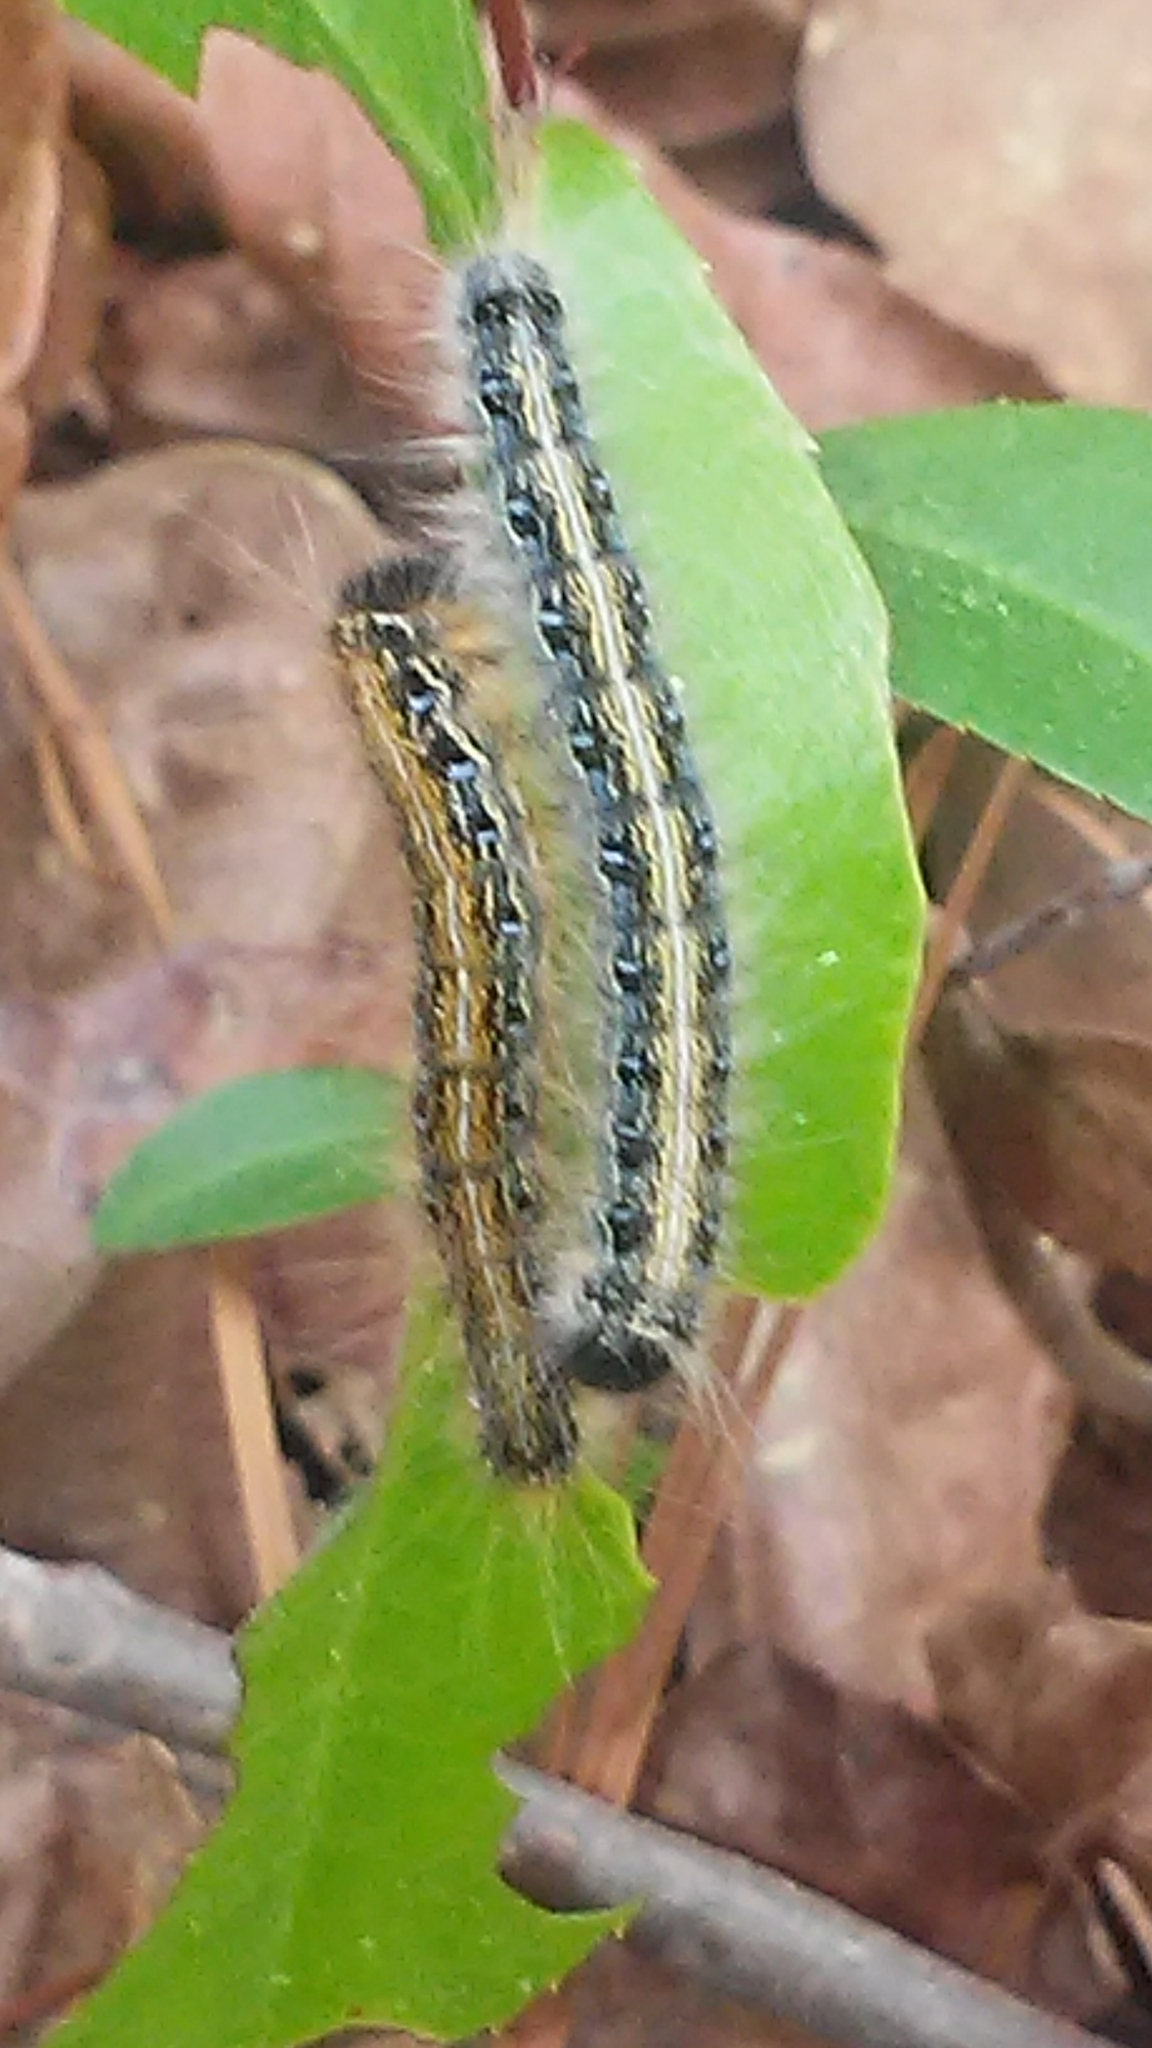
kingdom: Animalia
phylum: Arthropoda
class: Insecta
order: Lepidoptera
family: Lasiocampidae
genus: Malacosoma
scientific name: Malacosoma americana
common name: Eastern tent caterpillar moth
